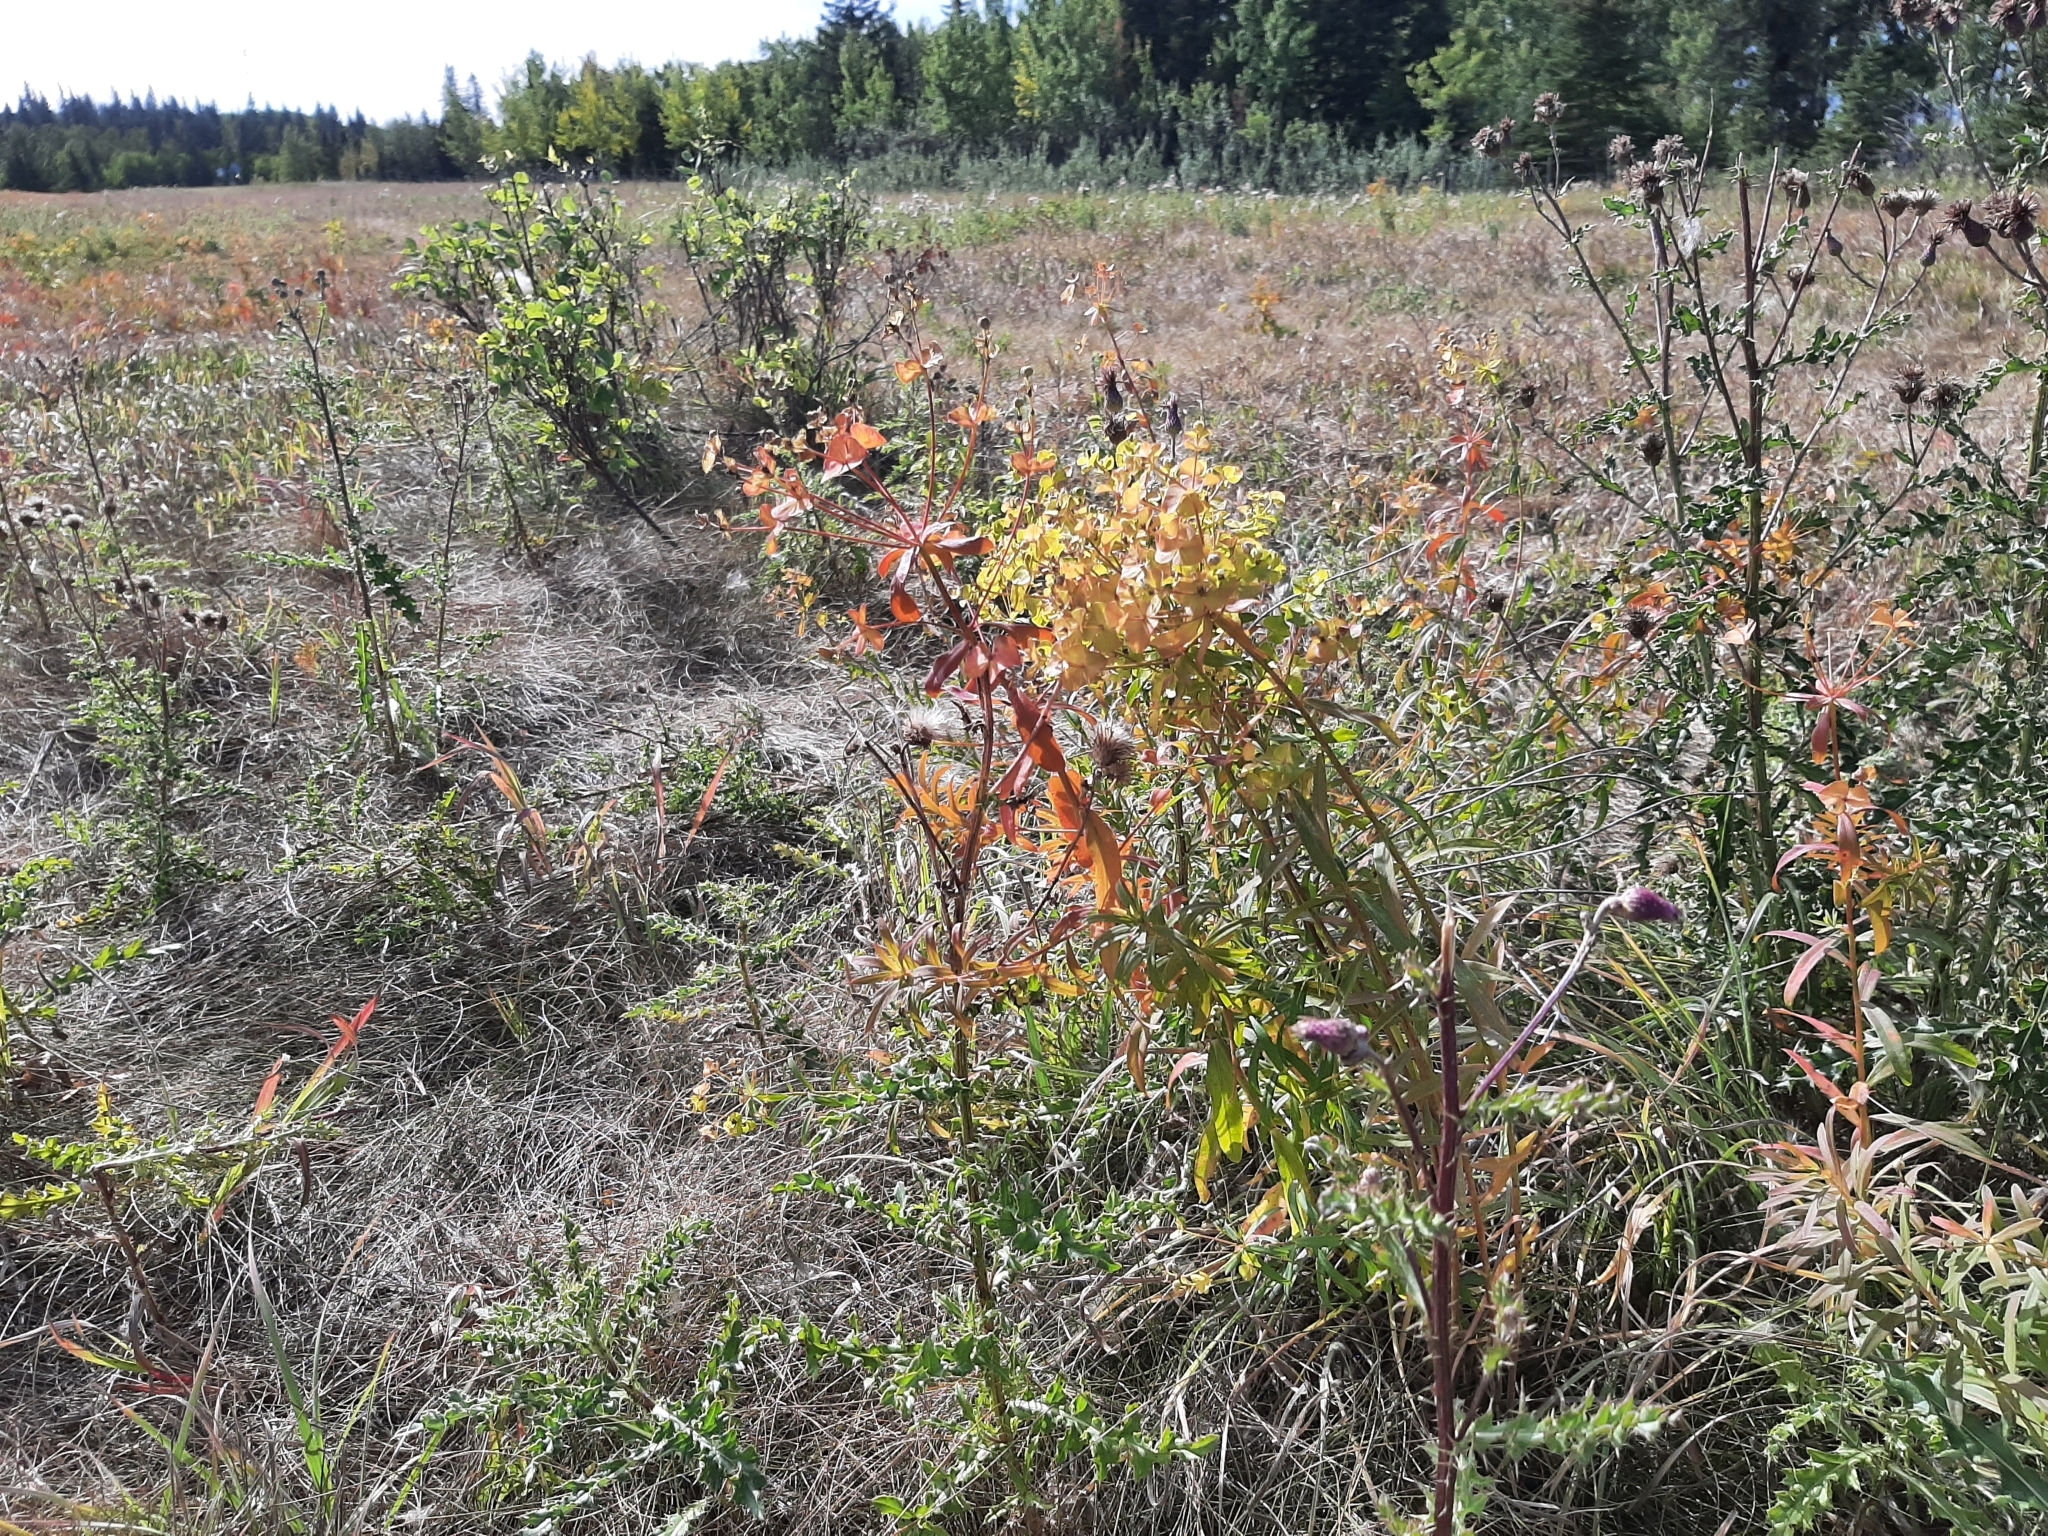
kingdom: Plantae
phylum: Tracheophyta
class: Magnoliopsida
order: Malpighiales
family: Euphorbiaceae
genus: Euphorbia
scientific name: Euphorbia virgata
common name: Leafy spurge
